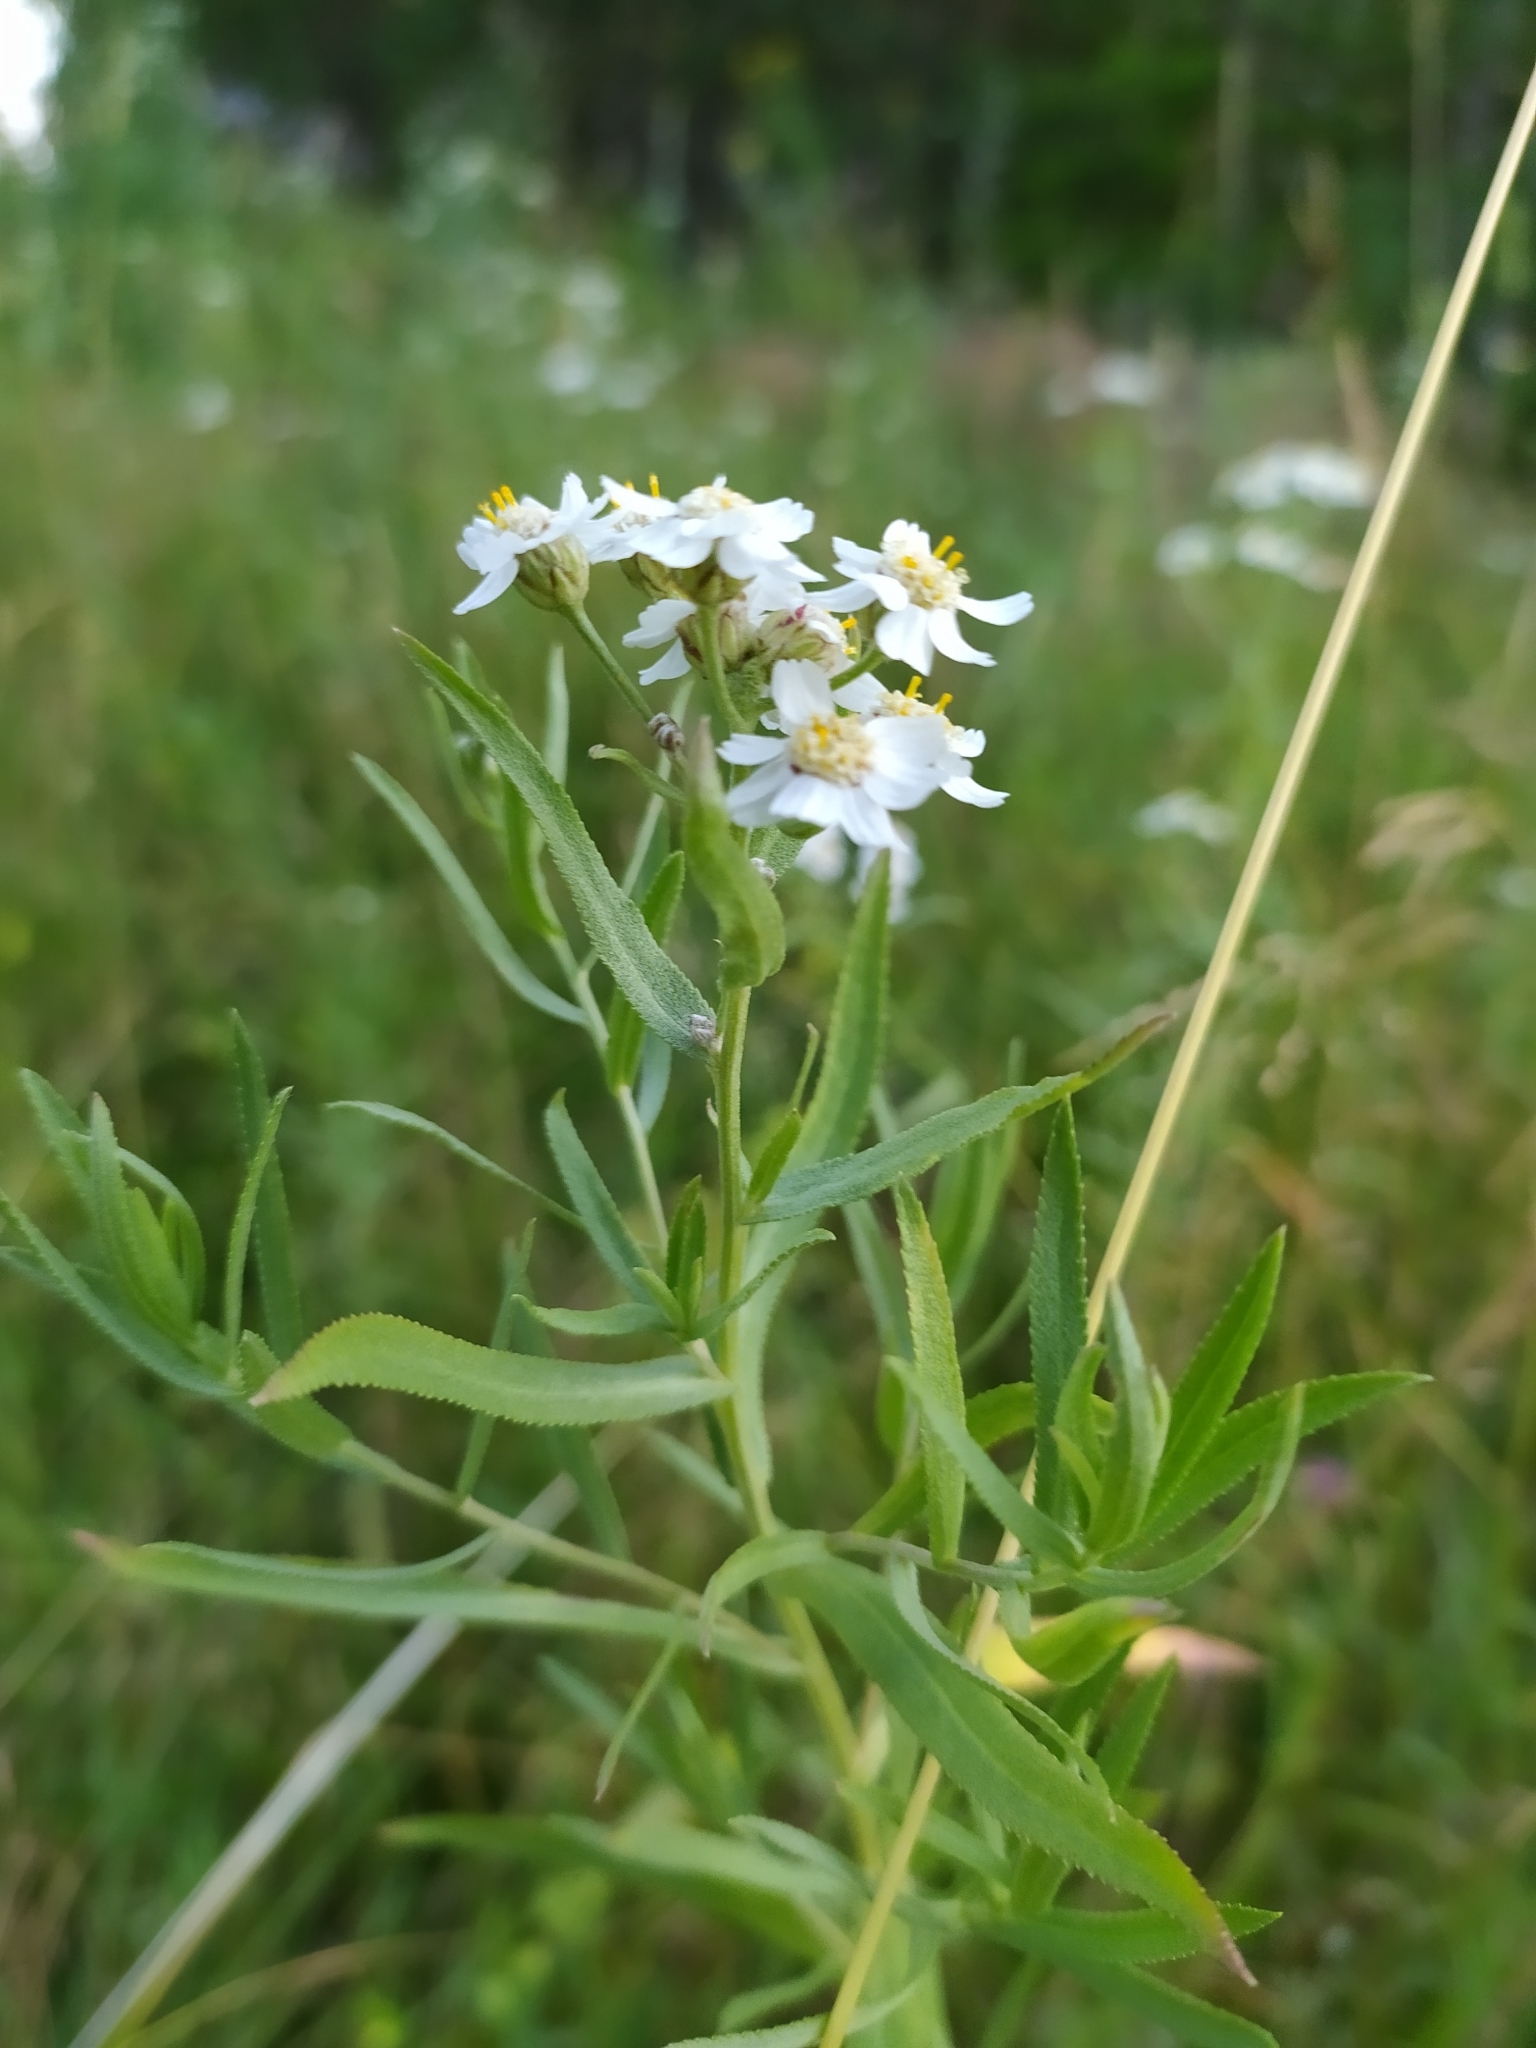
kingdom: Plantae
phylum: Tracheophyta
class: Magnoliopsida
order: Asterales
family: Asteraceae
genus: Achillea
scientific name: Achillea salicifolia
